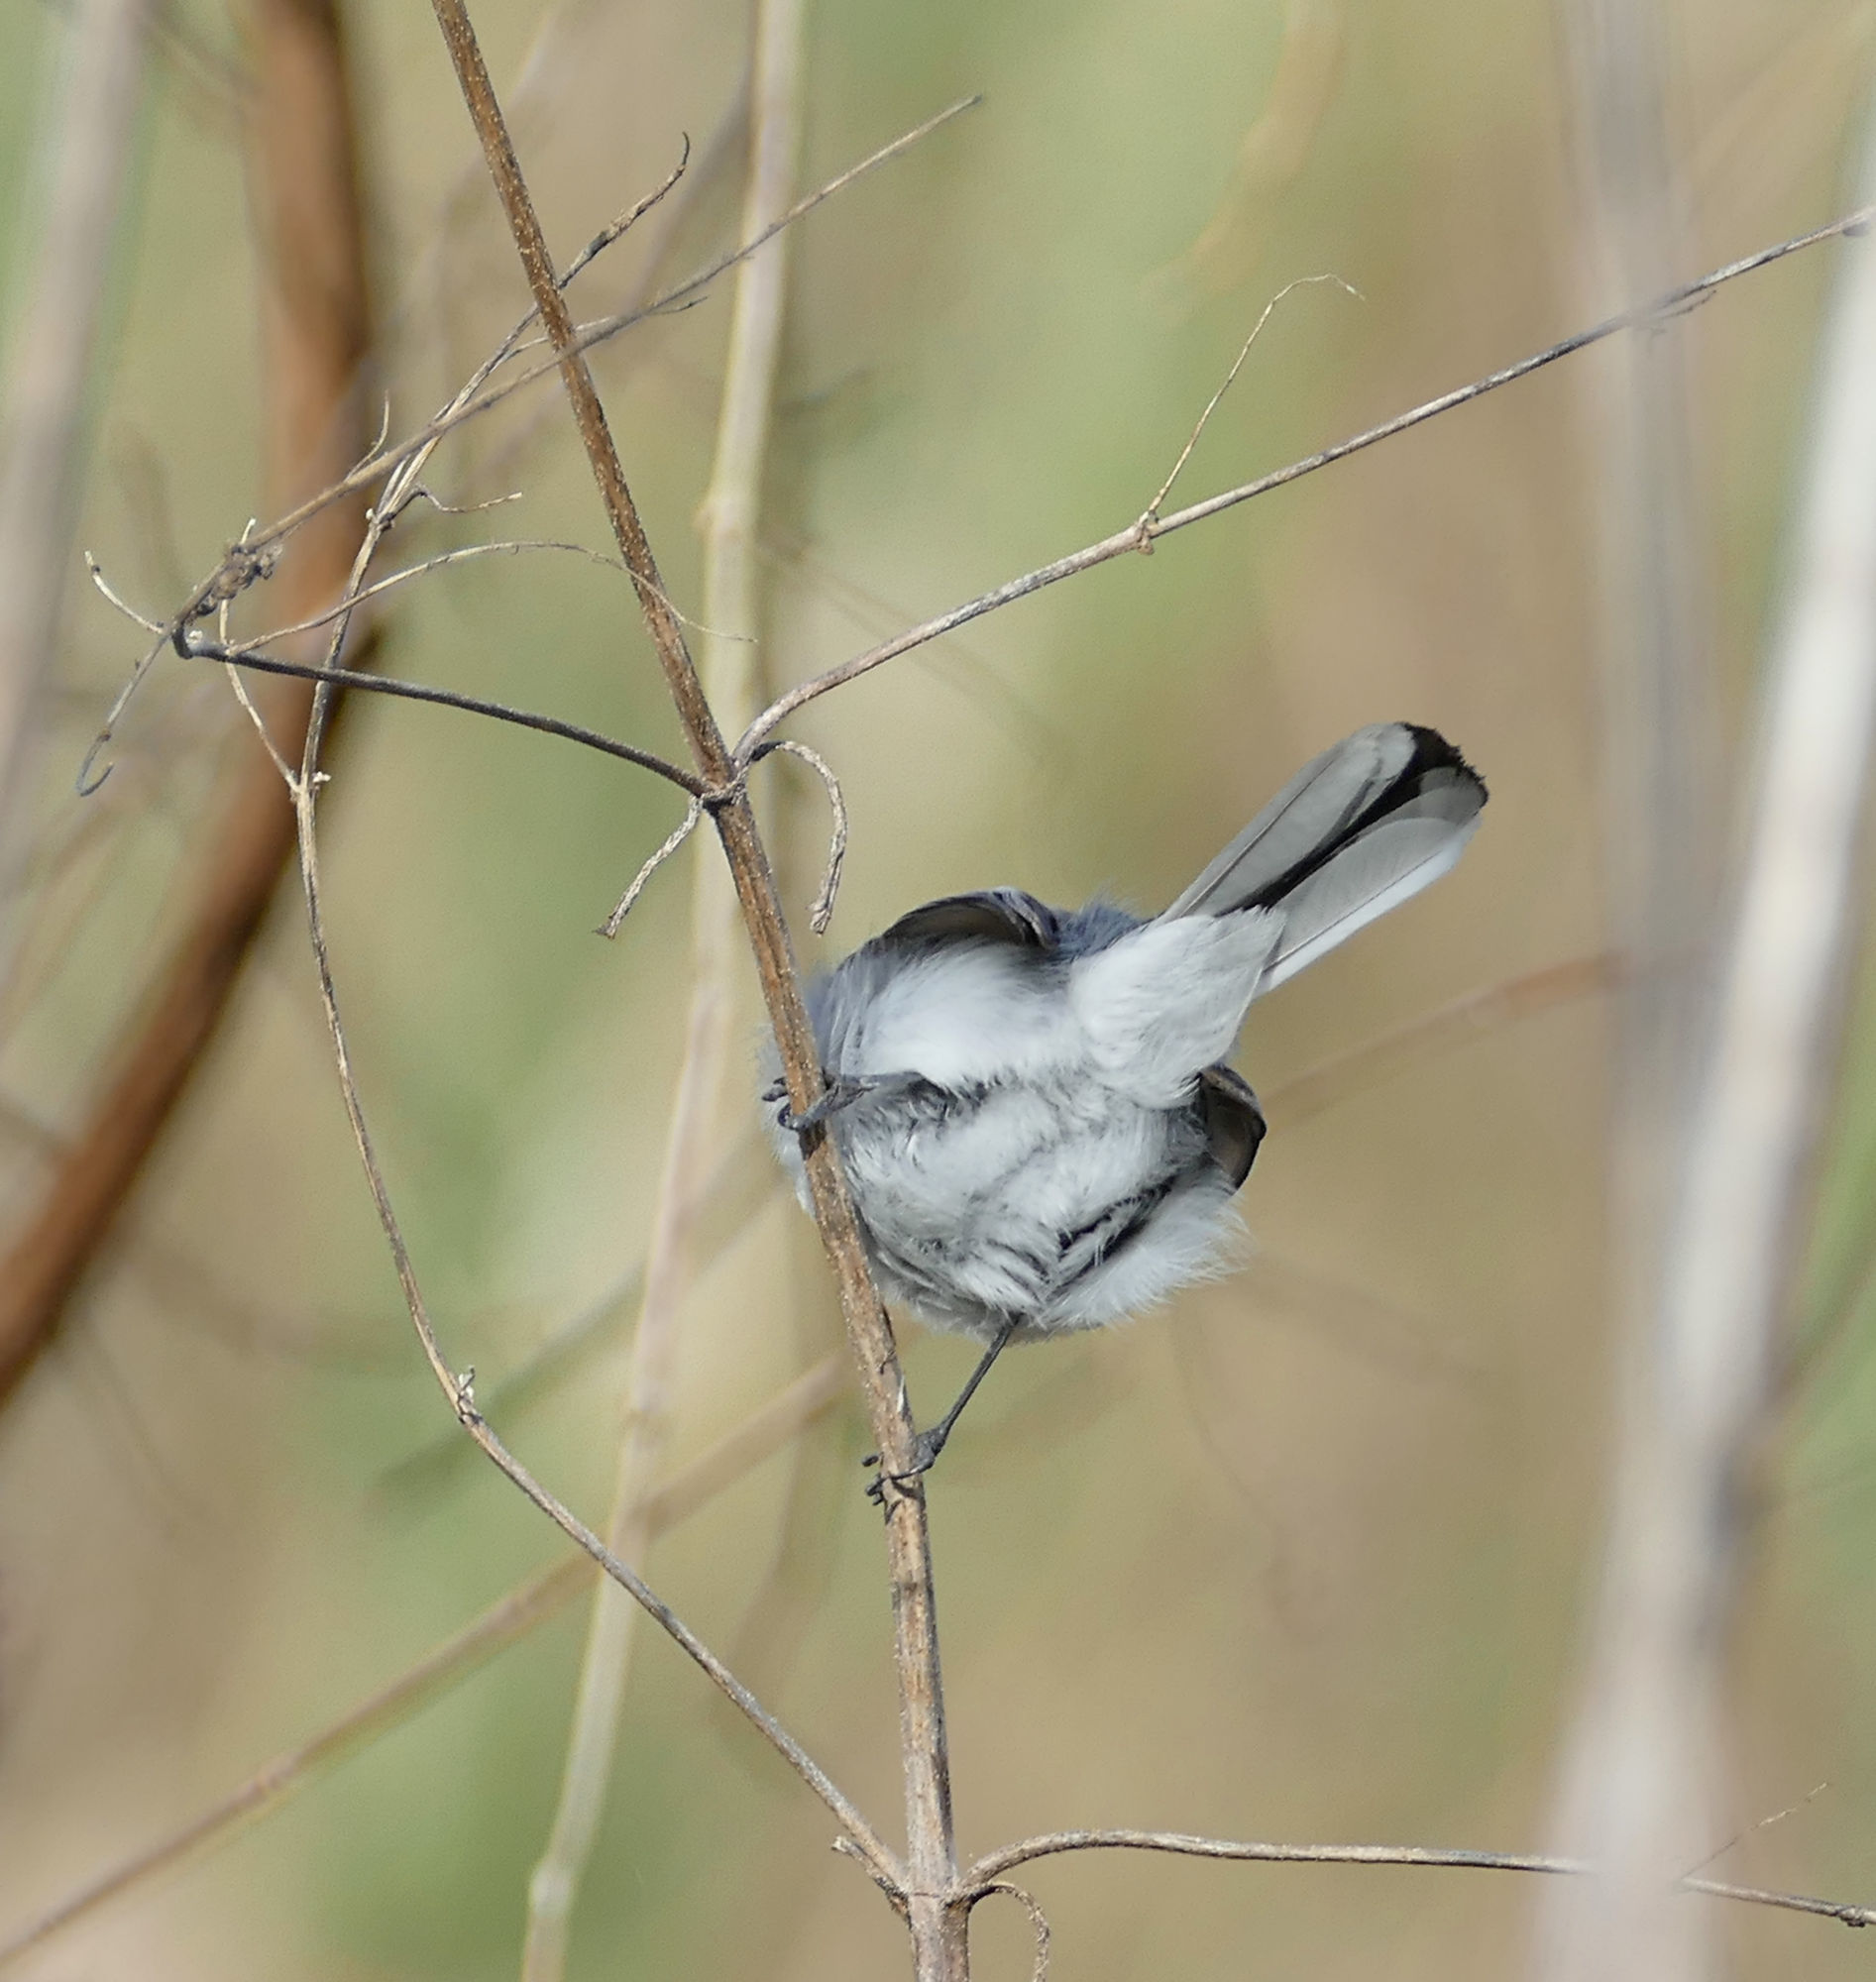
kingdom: Animalia
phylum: Chordata
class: Aves
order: Passeriformes
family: Polioptilidae
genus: Polioptila
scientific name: Polioptila caerulea
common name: Blue-gray gnatcatcher
